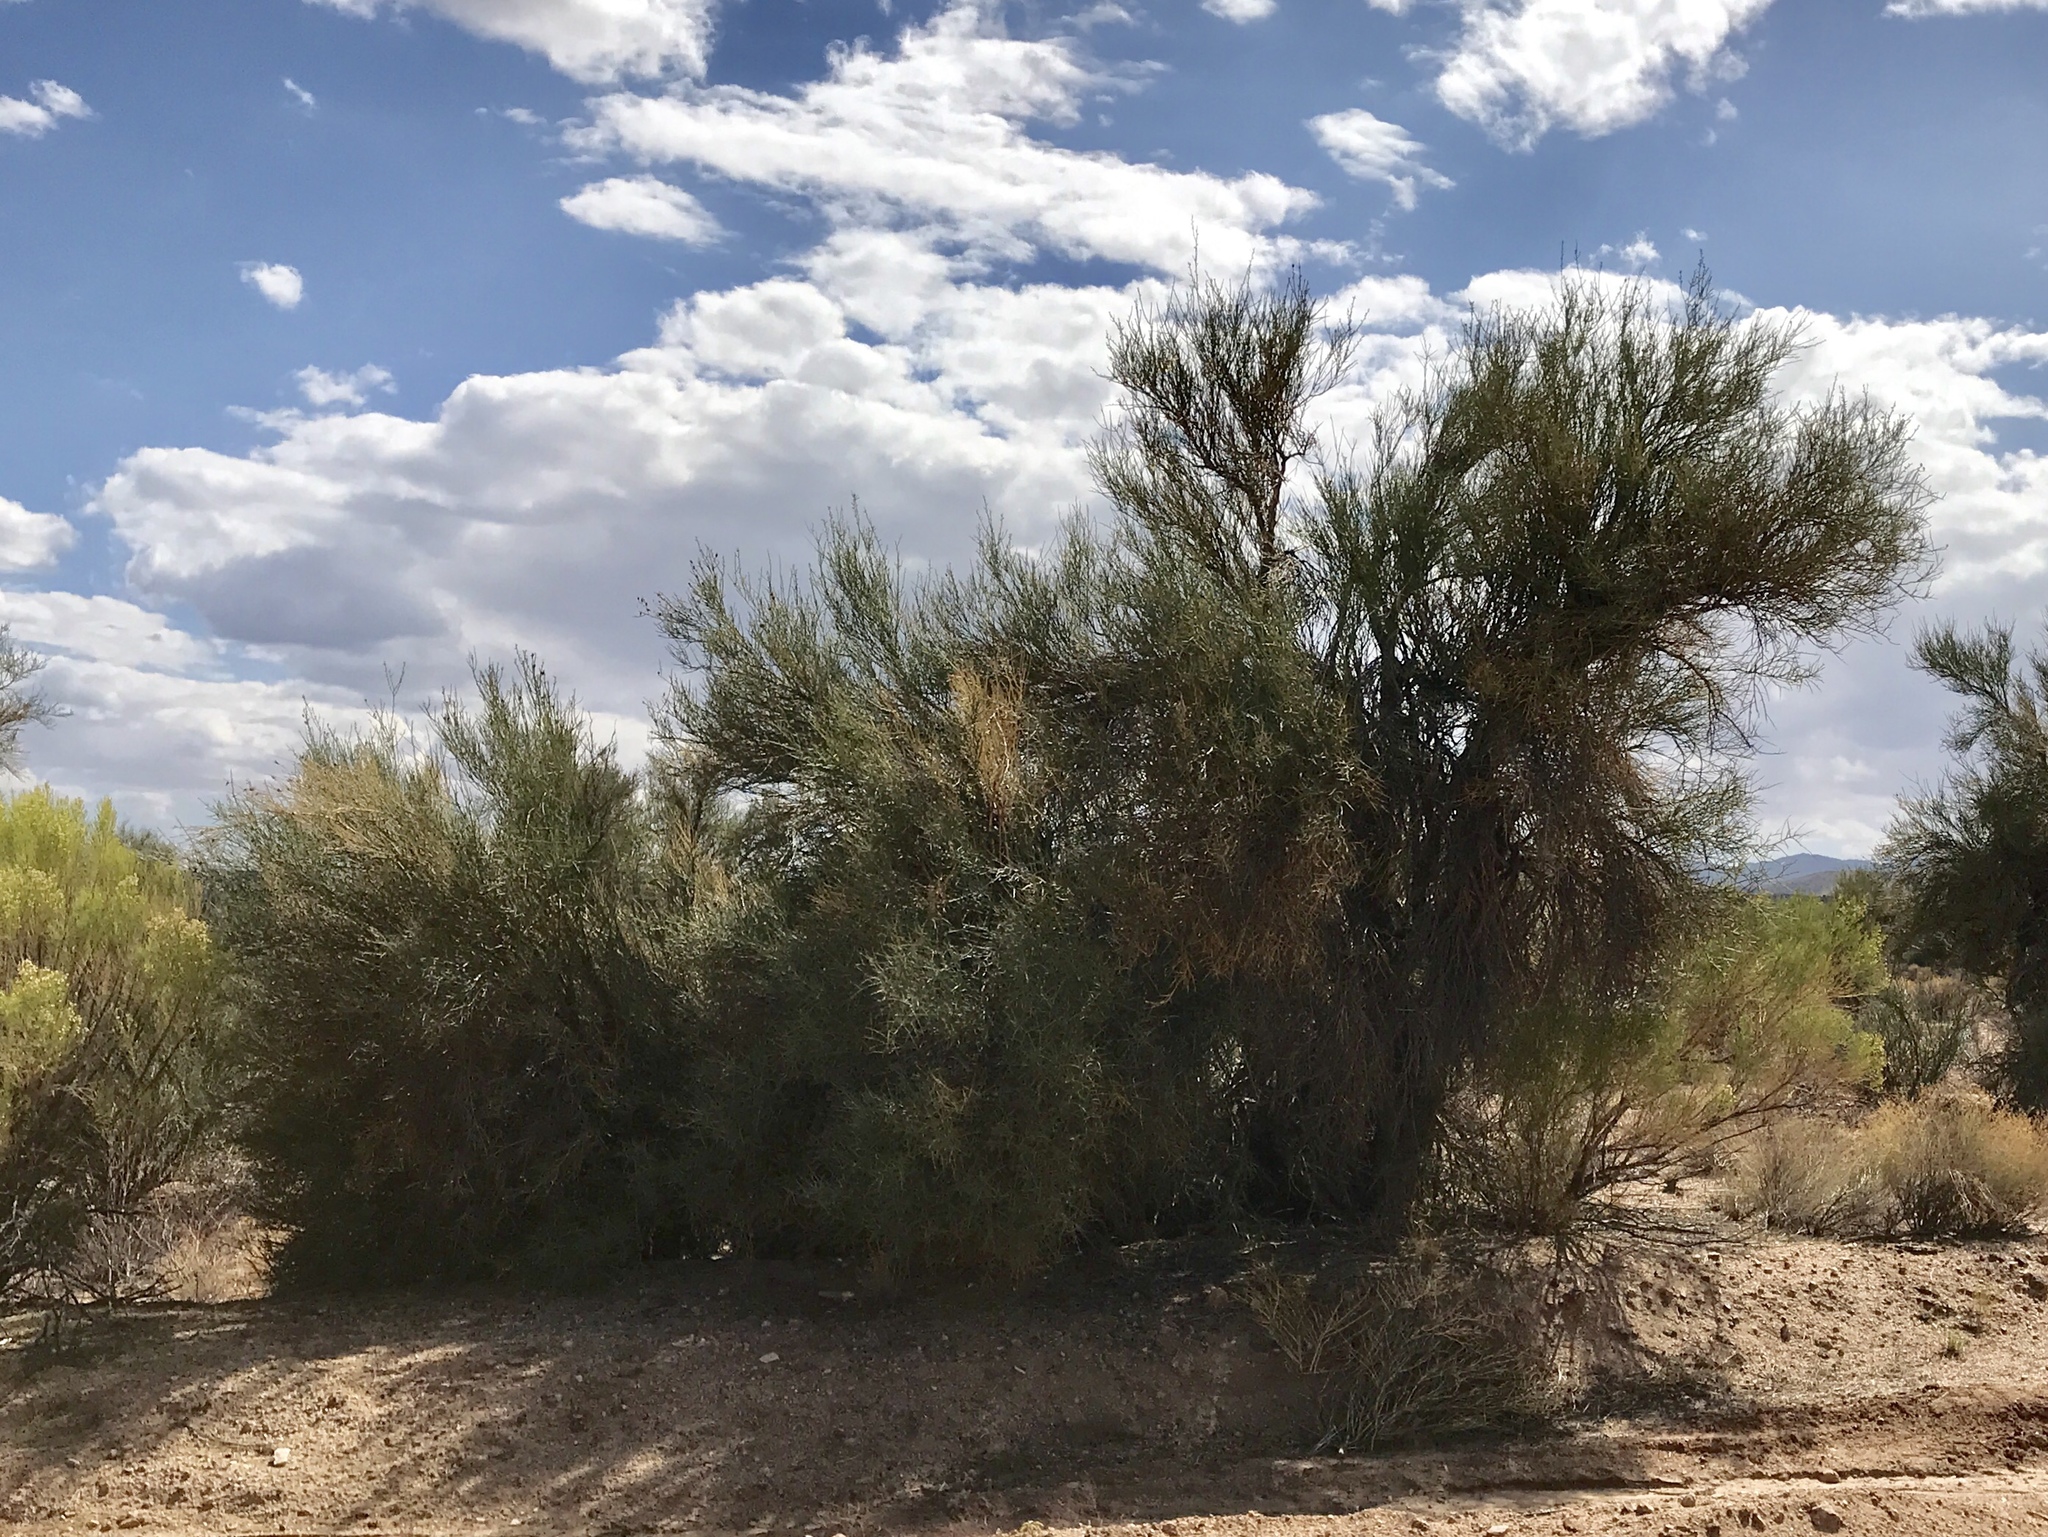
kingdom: Plantae
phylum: Tracheophyta
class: Magnoliopsida
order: Celastrales
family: Celastraceae
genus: Canotia
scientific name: Canotia holacantha
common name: Crucifixion thorns
